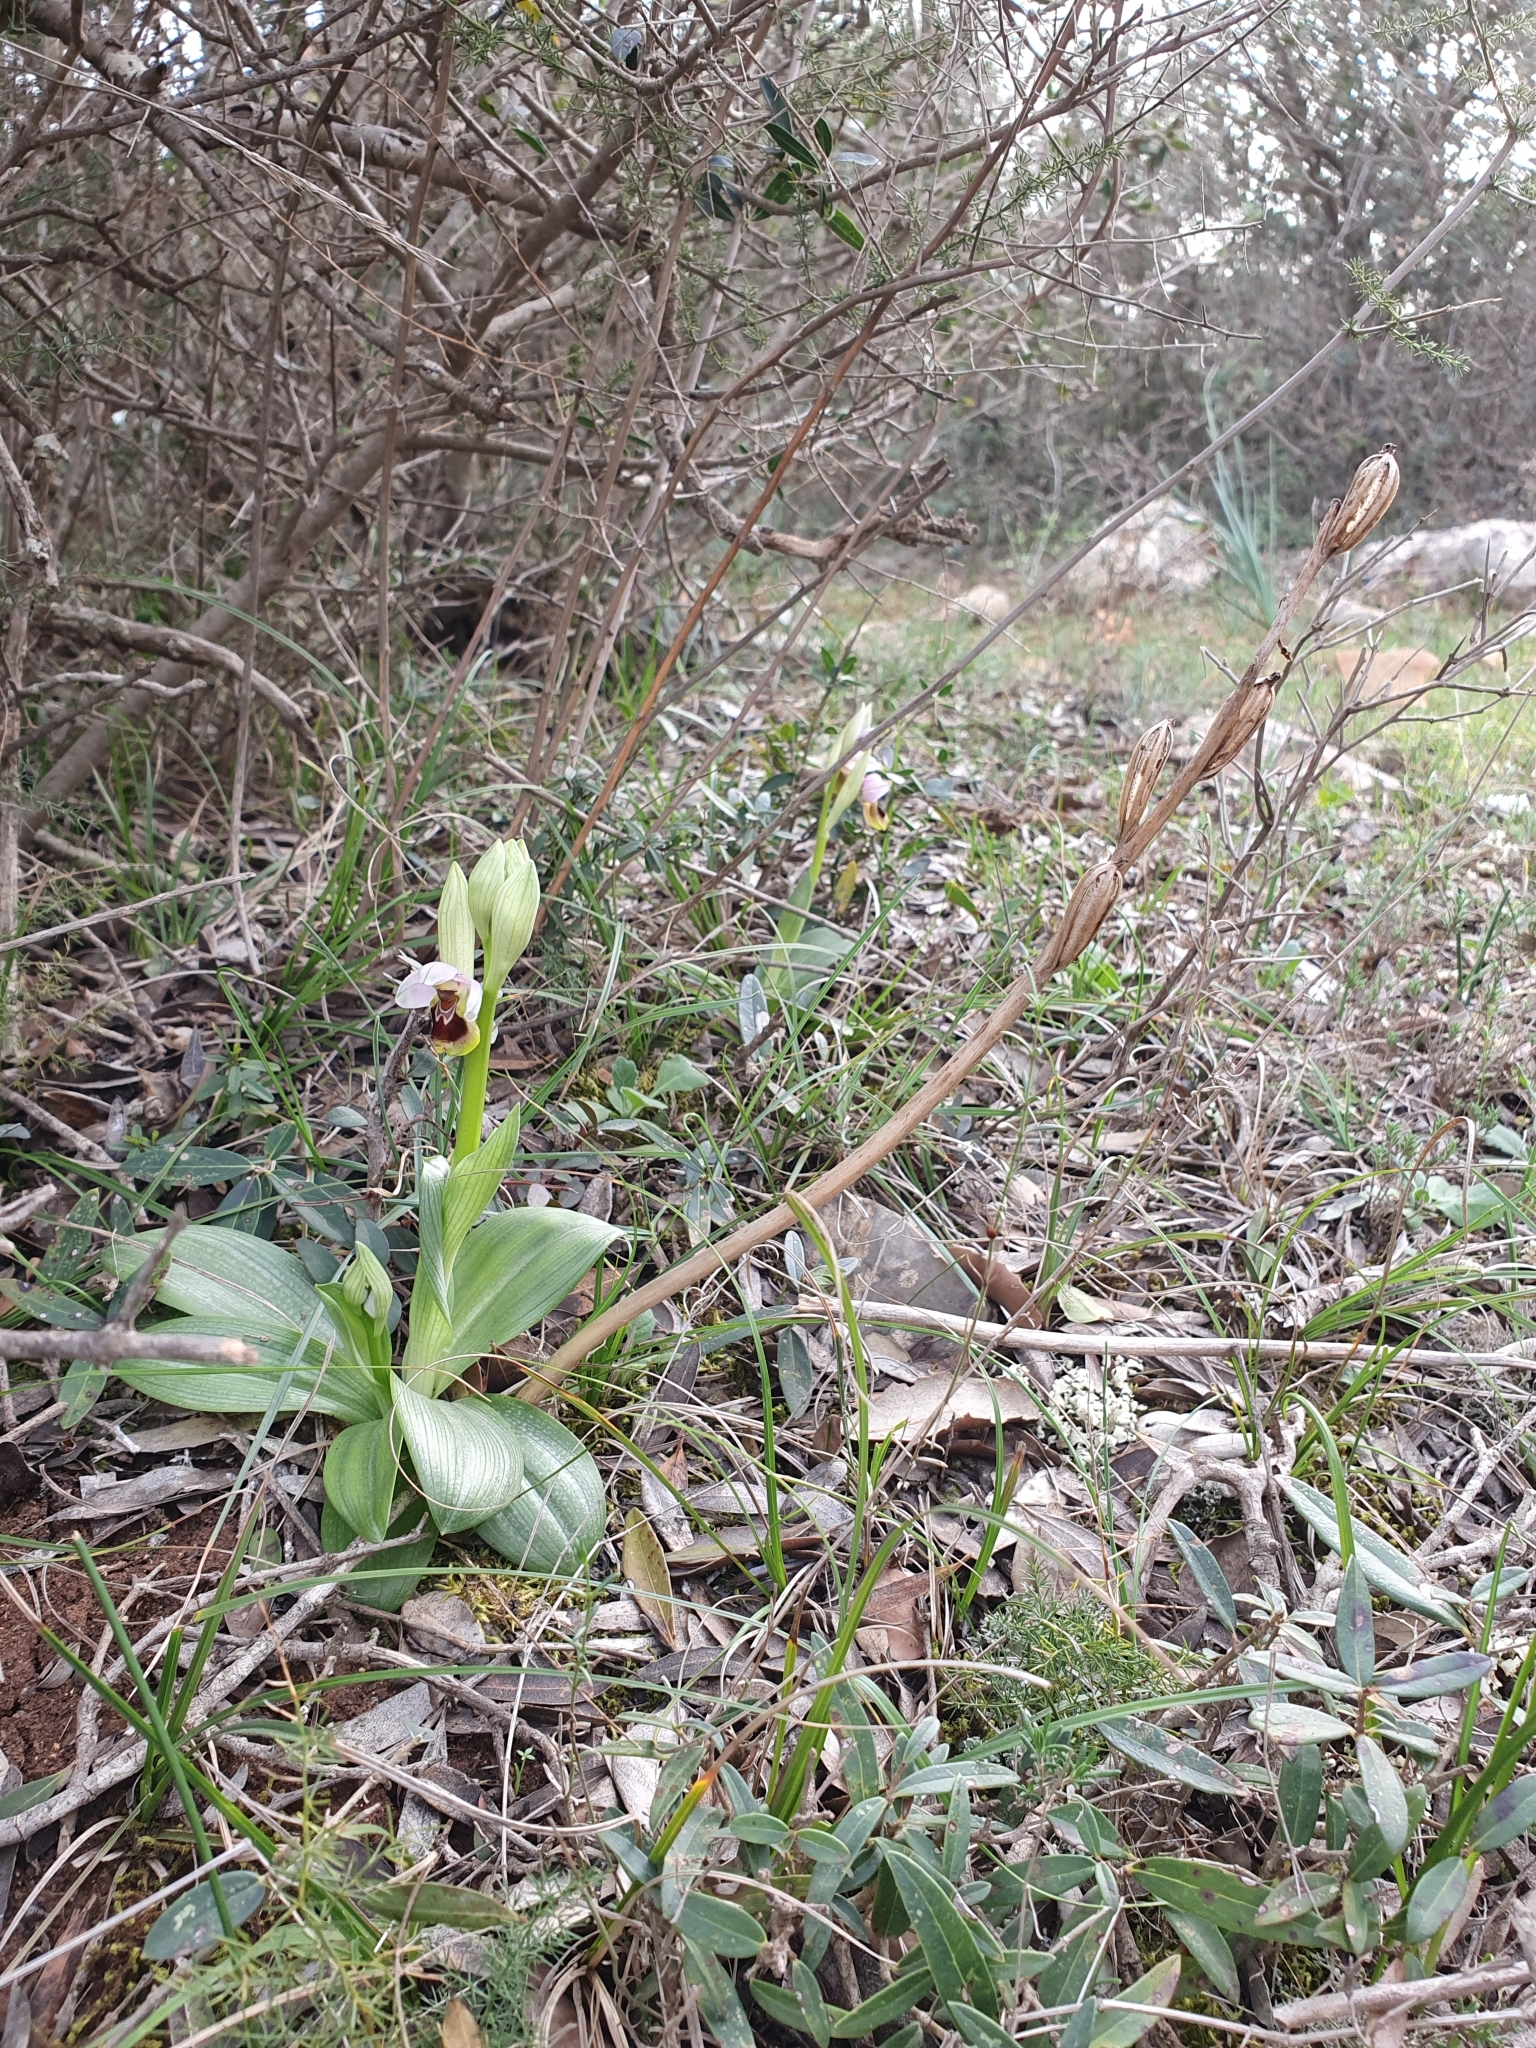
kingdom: Plantae
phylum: Tracheophyta
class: Liliopsida
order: Asparagales
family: Orchidaceae
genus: Ophrys
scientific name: Ophrys tenthredinifera
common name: Sawfly orchid
